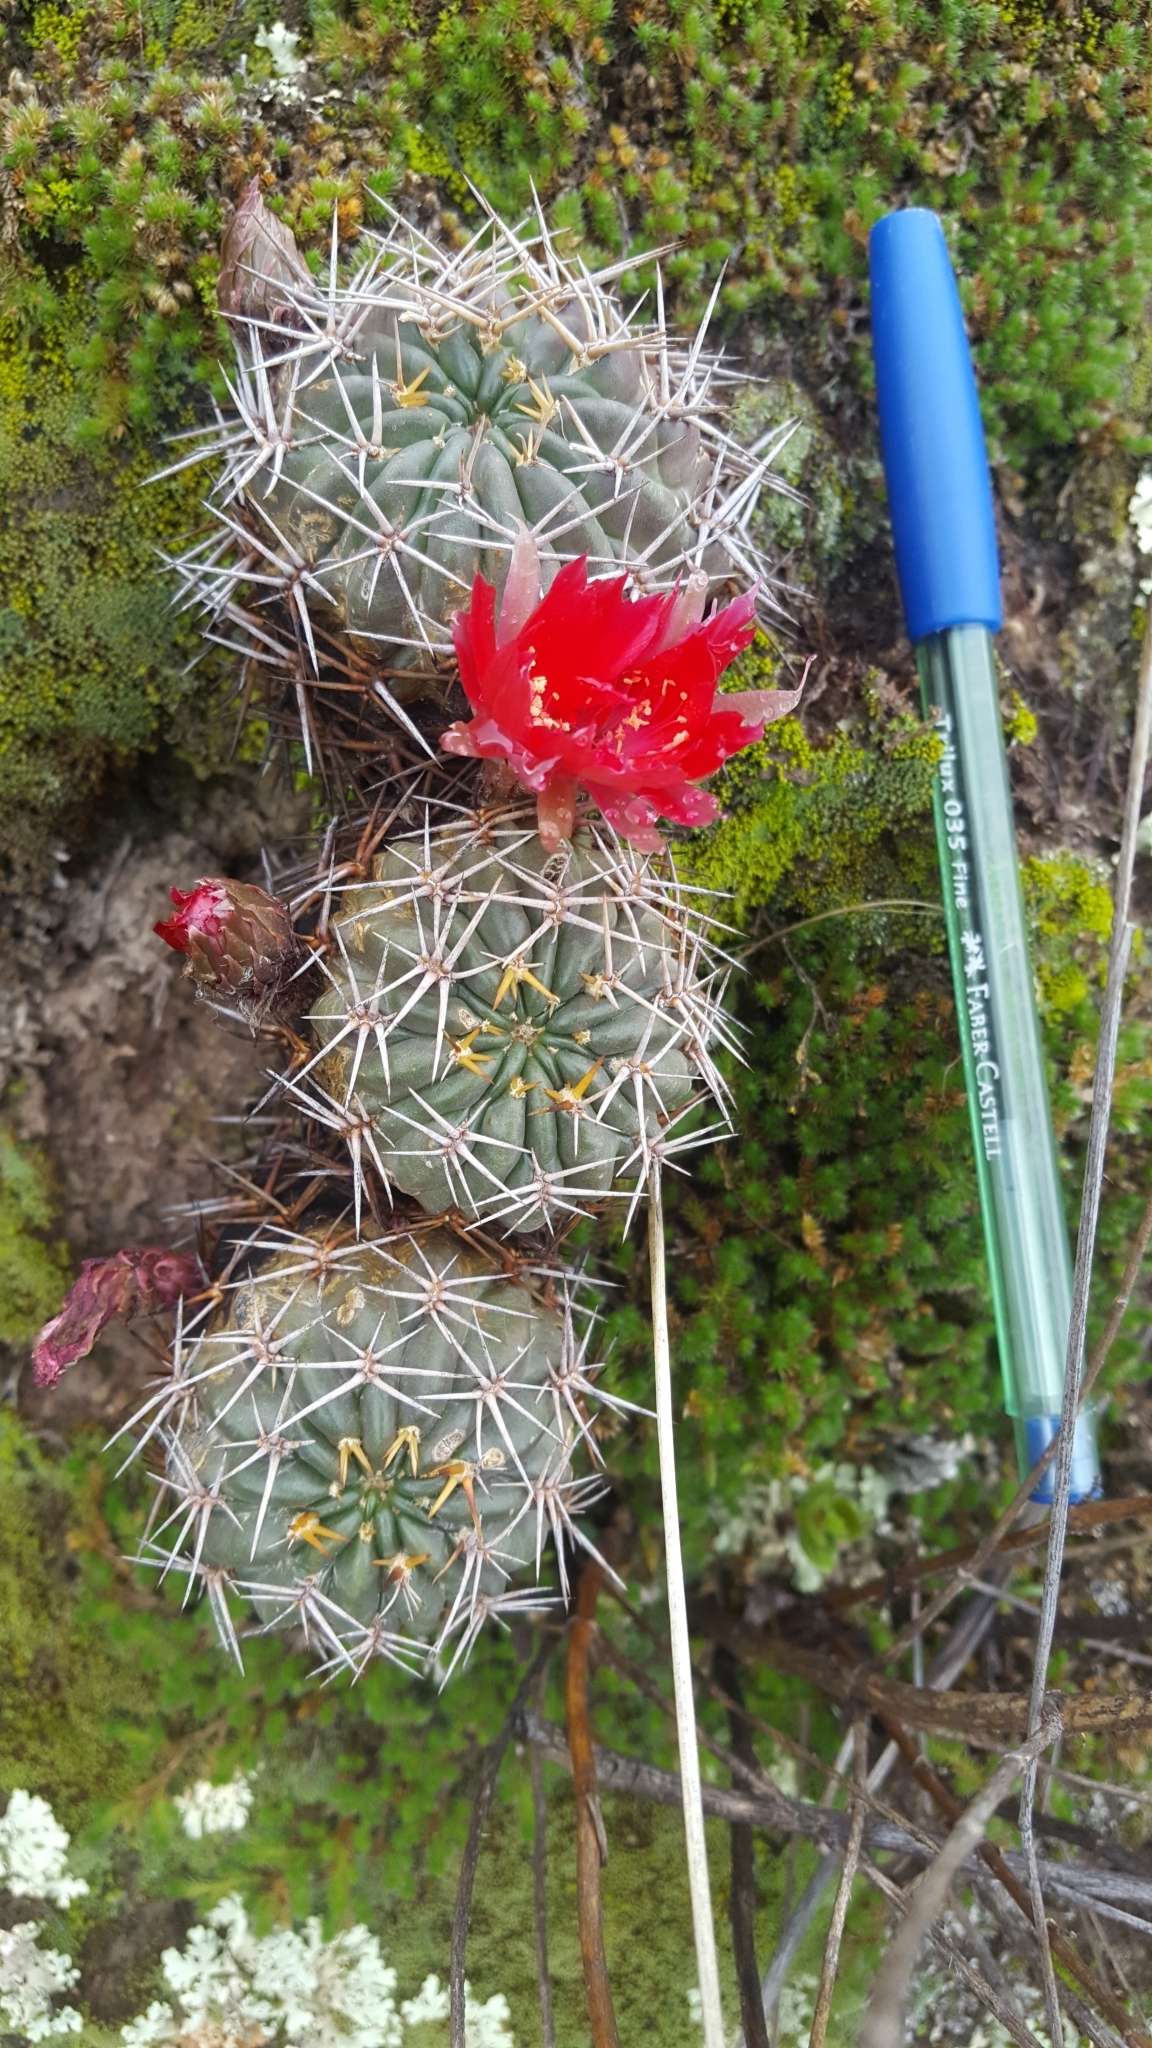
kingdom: Plantae
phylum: Tracheophyta
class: Magnoliopsida
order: Caryophyllales
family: Cactaceae
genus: Lobivia
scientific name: Lobivia backebergii
